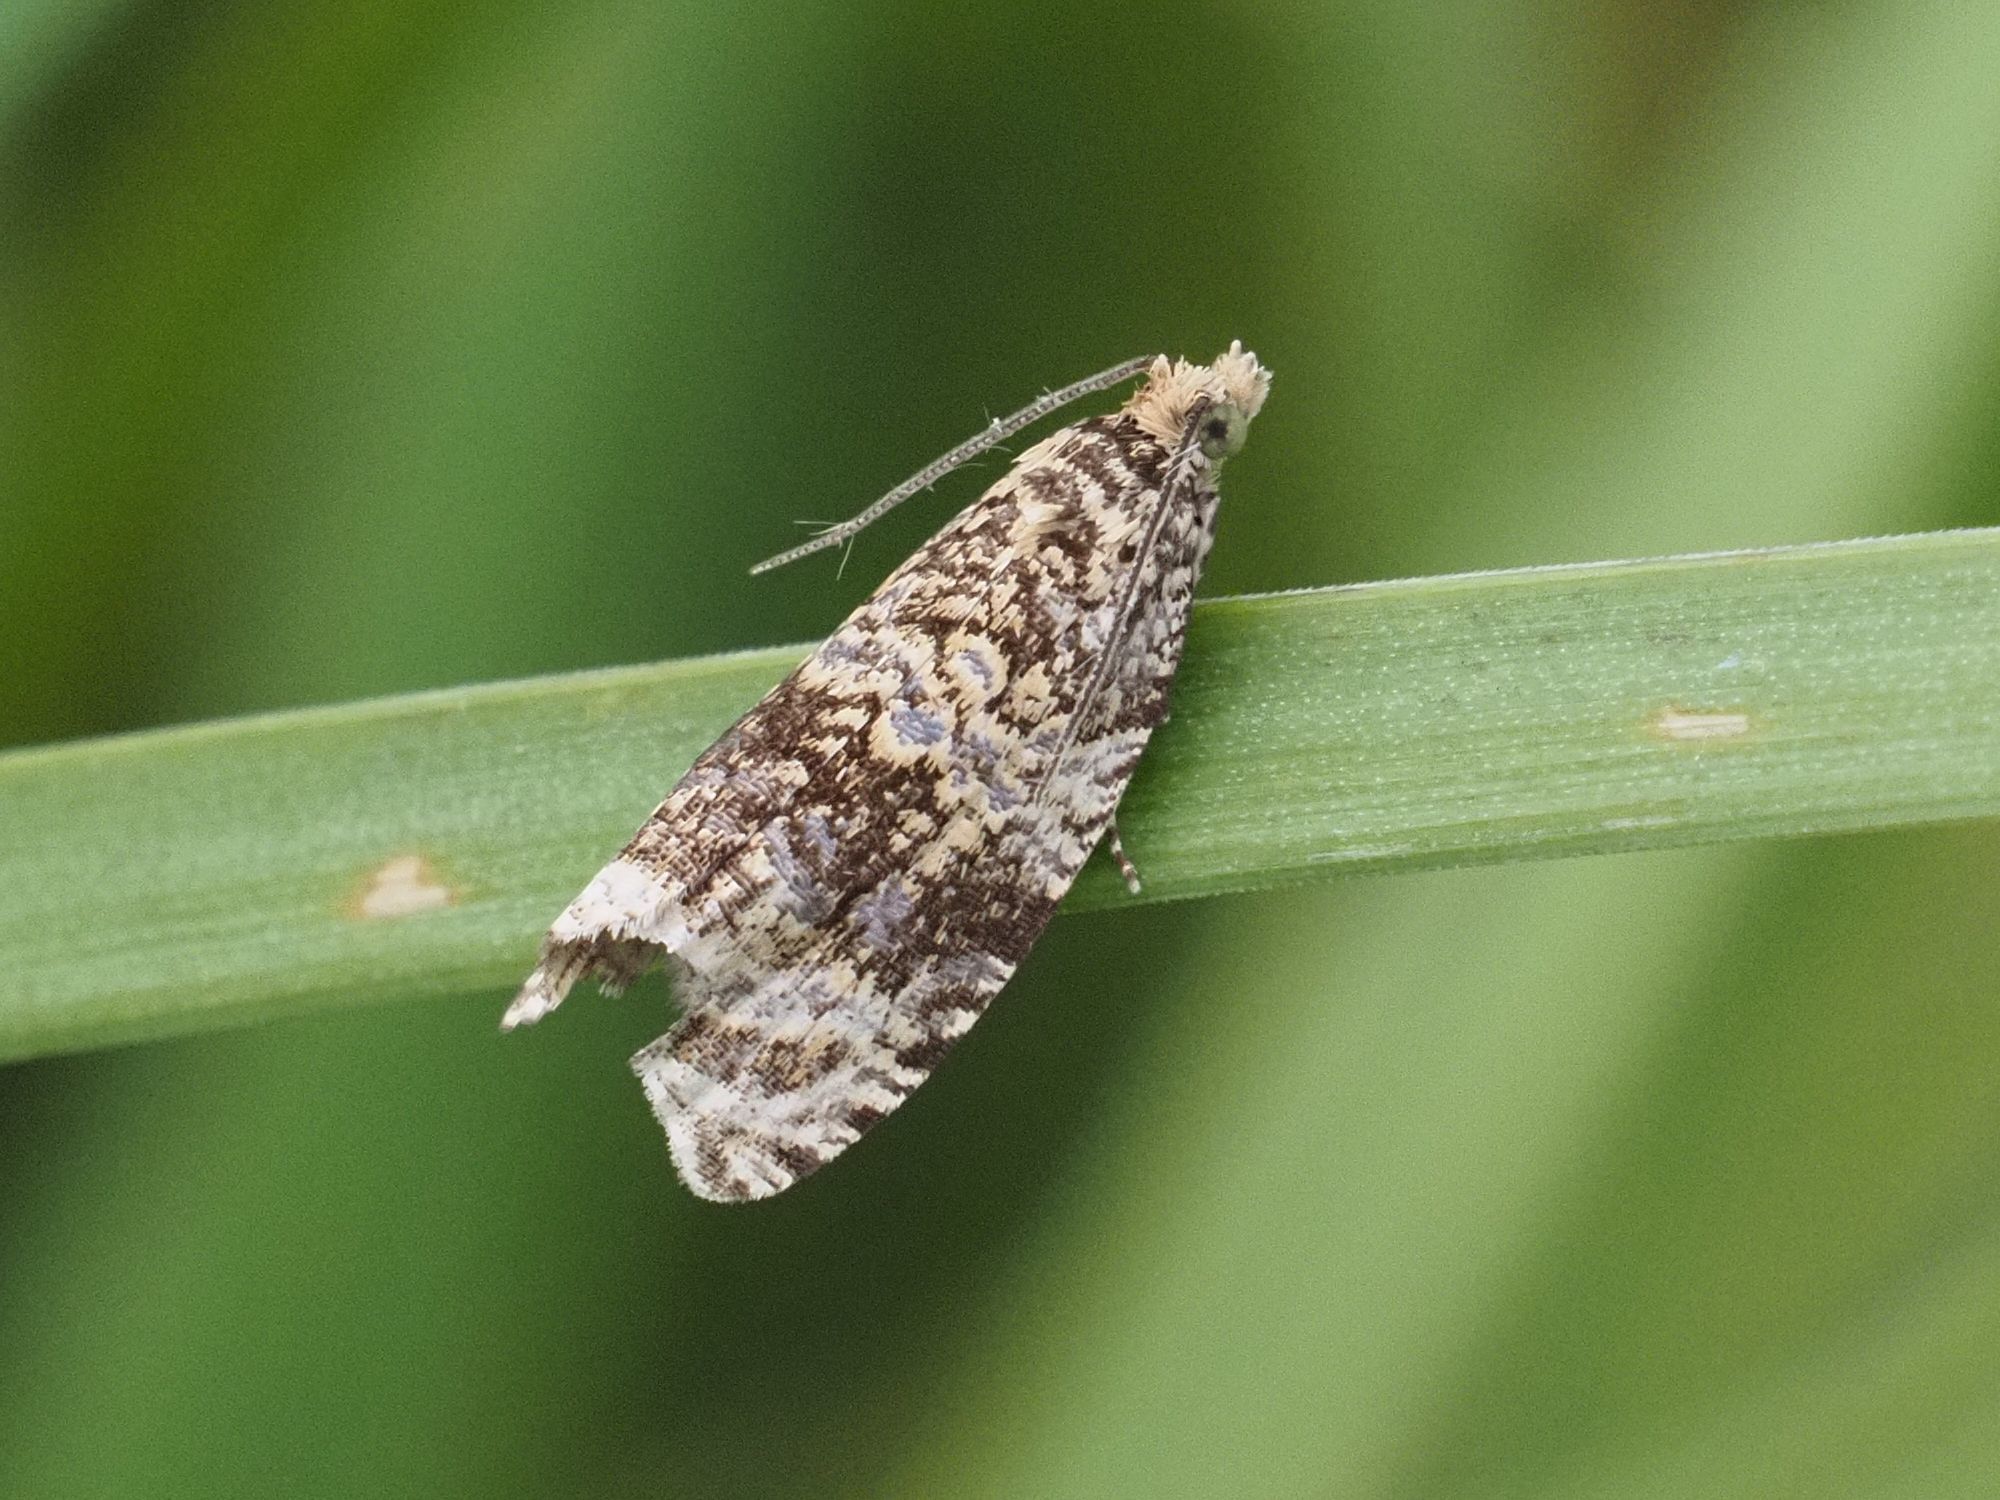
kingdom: Animalia
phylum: Arthropoda
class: Insecta
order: Lepidoptera
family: Tortricidae
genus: Syricoris
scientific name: Syricoris lacunana
